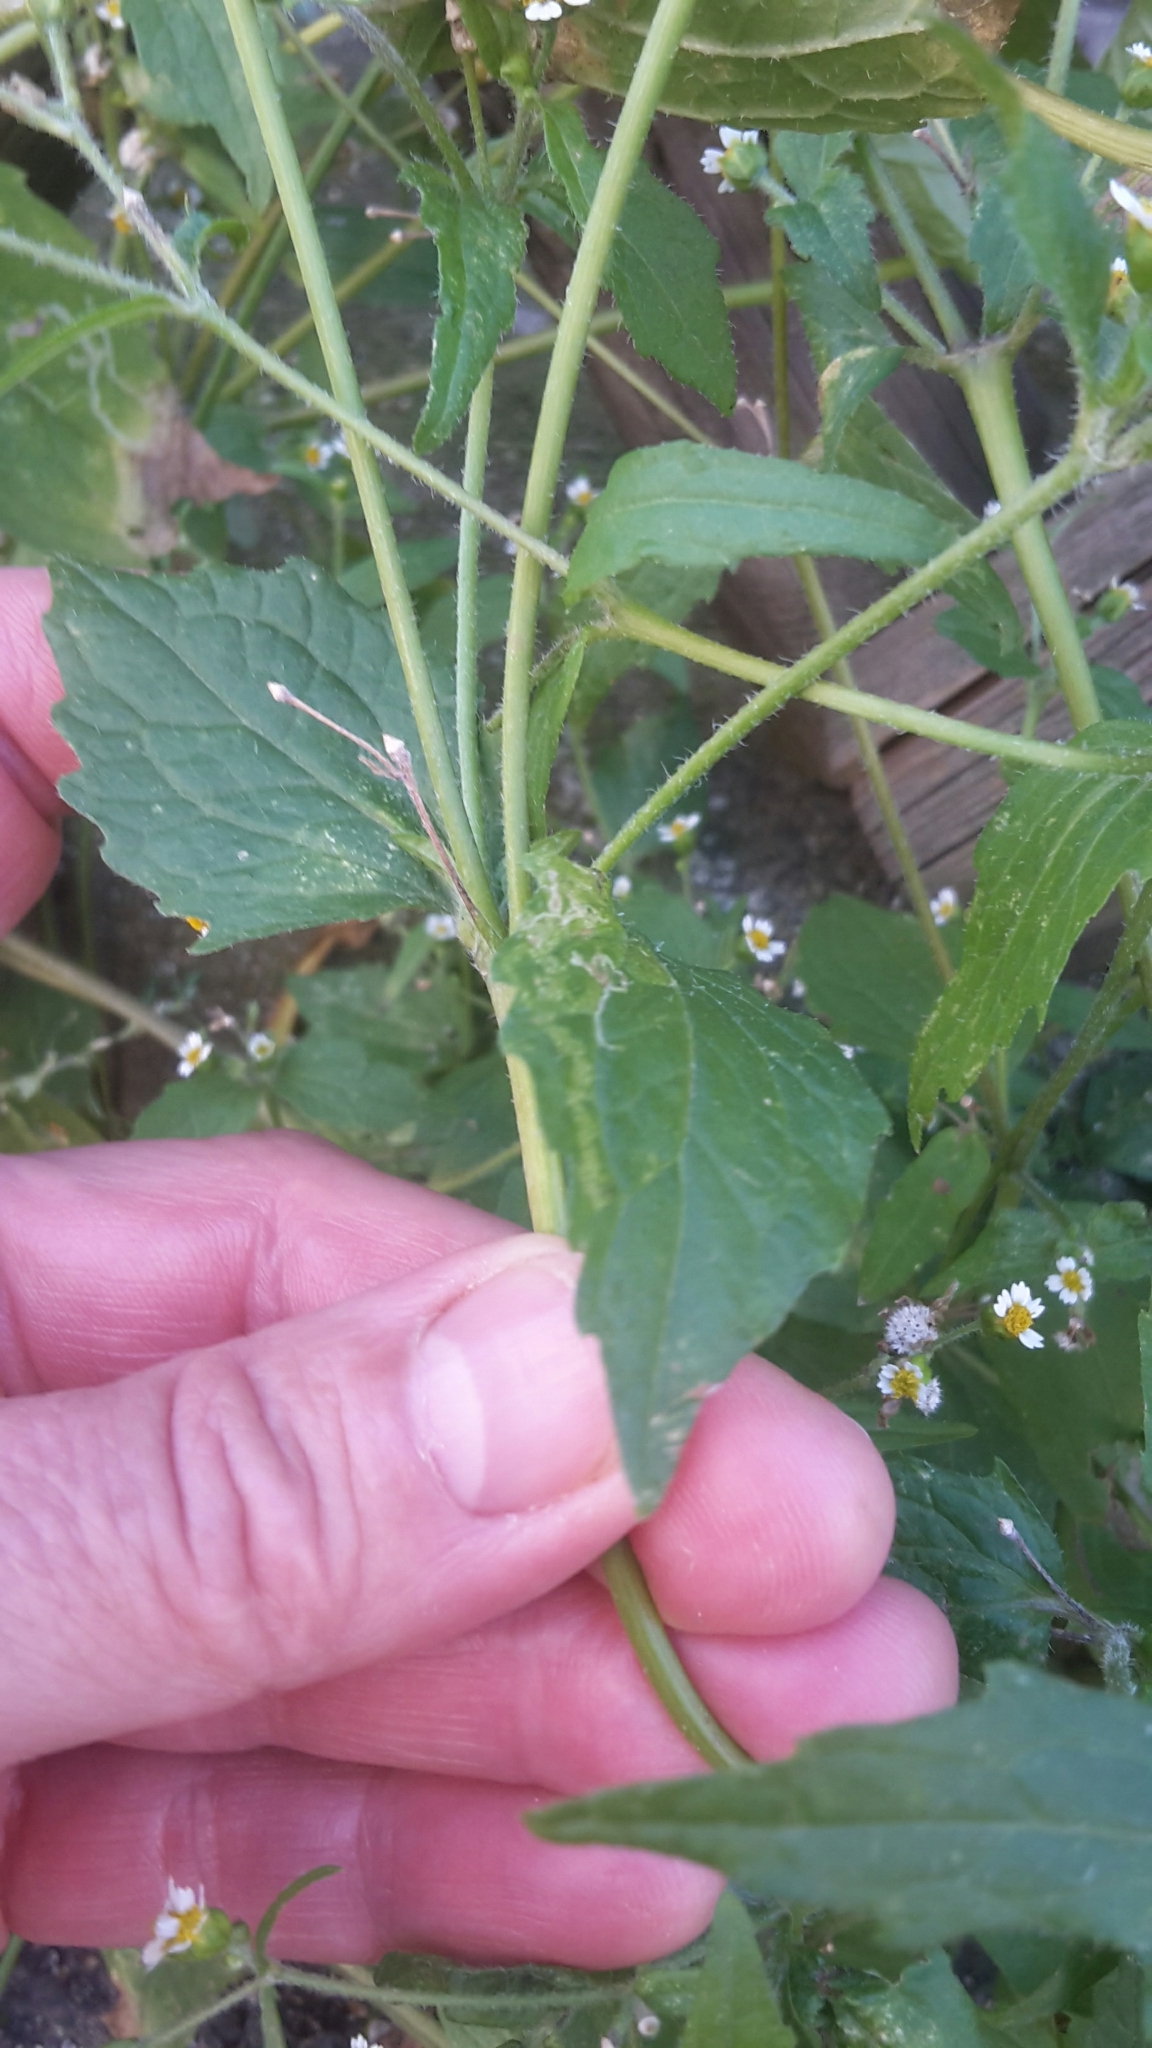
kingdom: Plantae
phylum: Tracheophyta
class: Magnoliopsida
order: Asterales
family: Asteraceae
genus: Galinsoga
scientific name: Galinsoga quadriradiata
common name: Shaggy soldier
